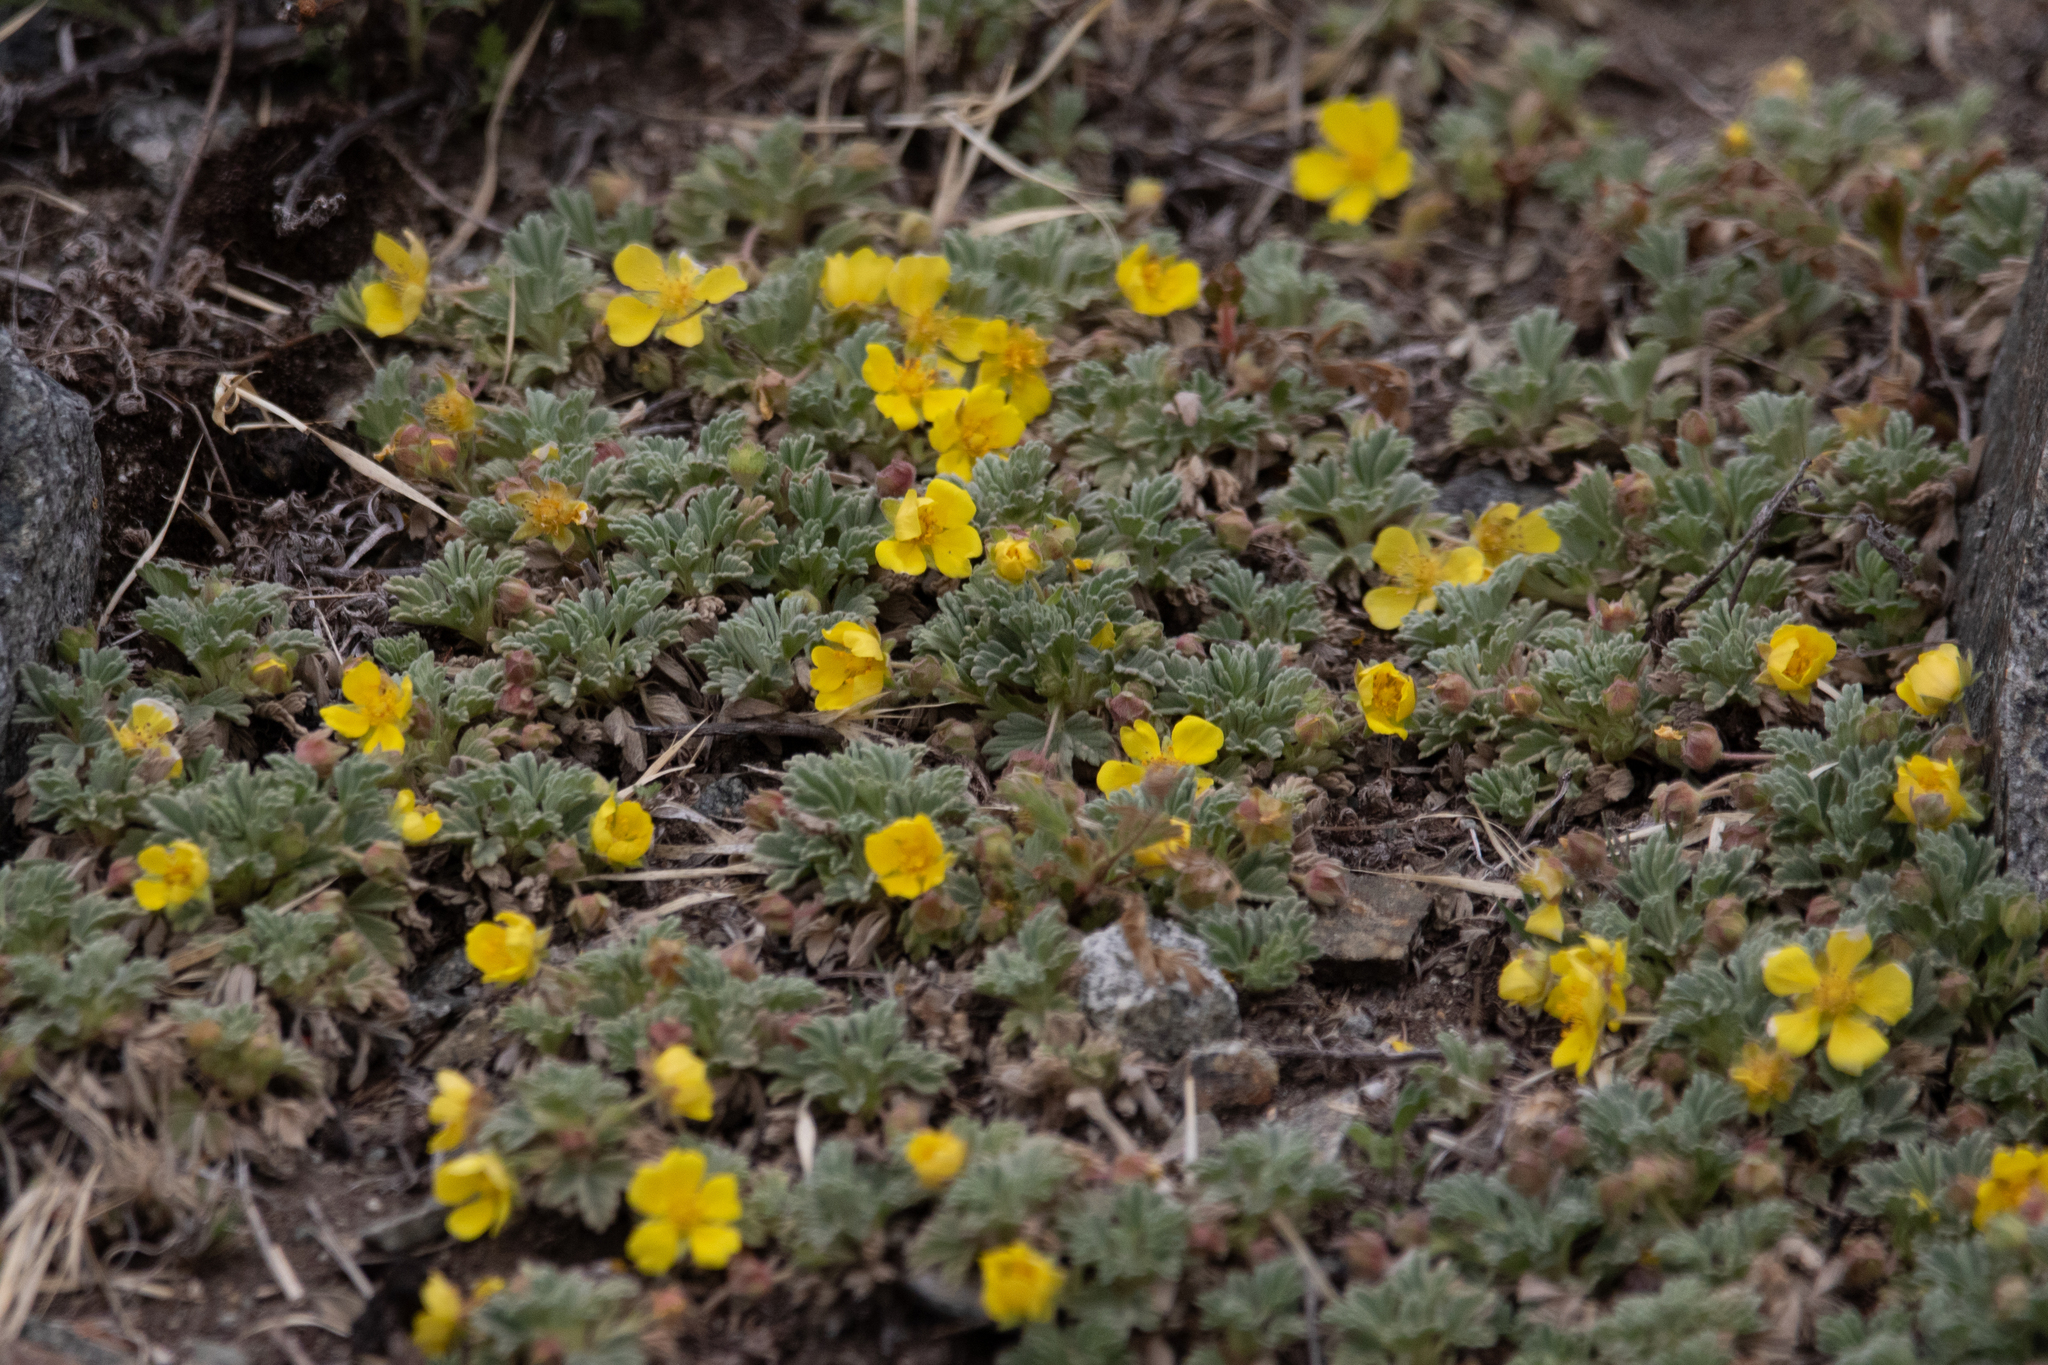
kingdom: Plantae
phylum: Tracheophyta
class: Magnoliopsida
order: Rosales
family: Rosaceae
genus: Potentilla
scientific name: Potentilla acaulis
